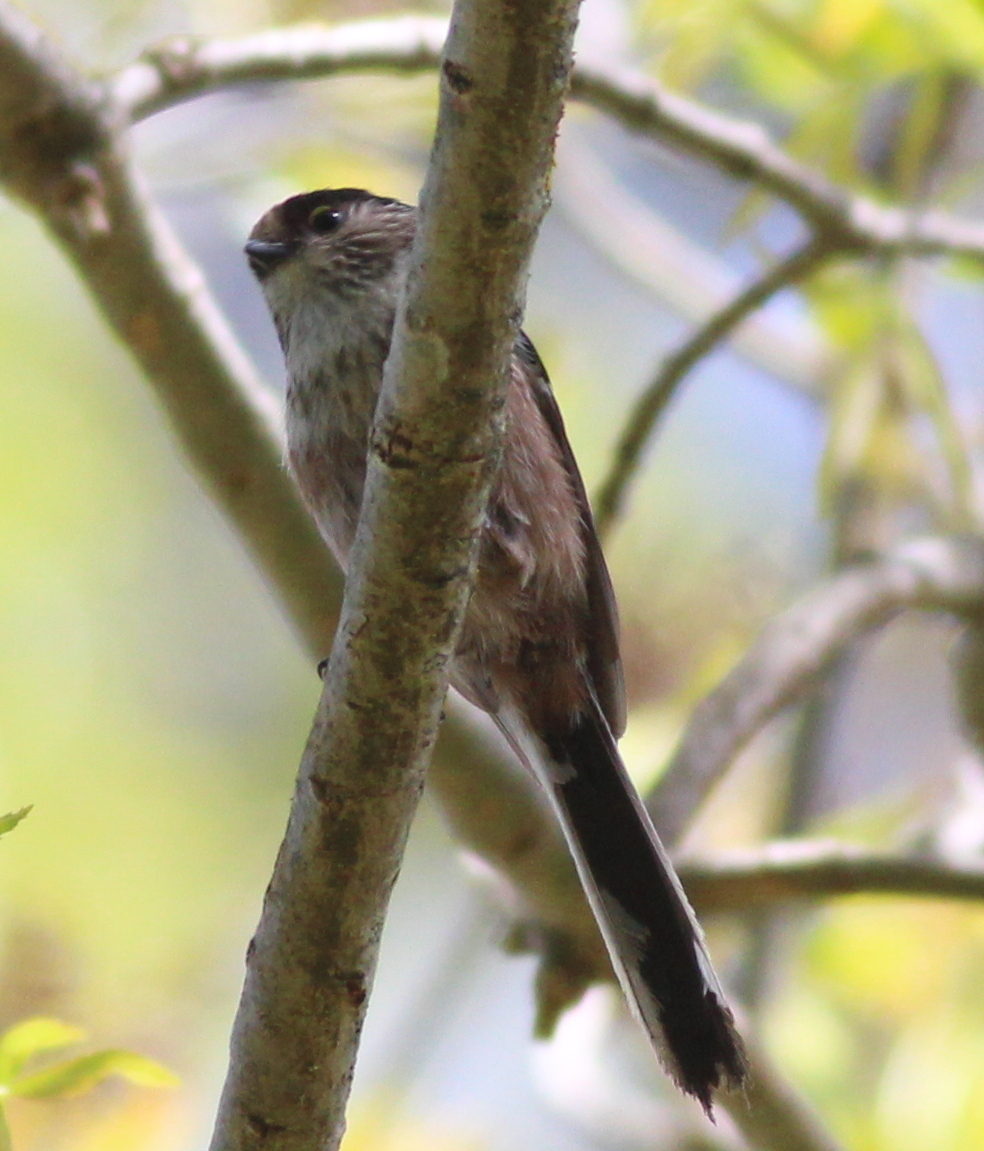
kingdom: Animalia
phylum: Chordata
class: Aves
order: Passeriformes
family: Aegithalidae
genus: Aegithalos
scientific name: Aegithalos caudatus
